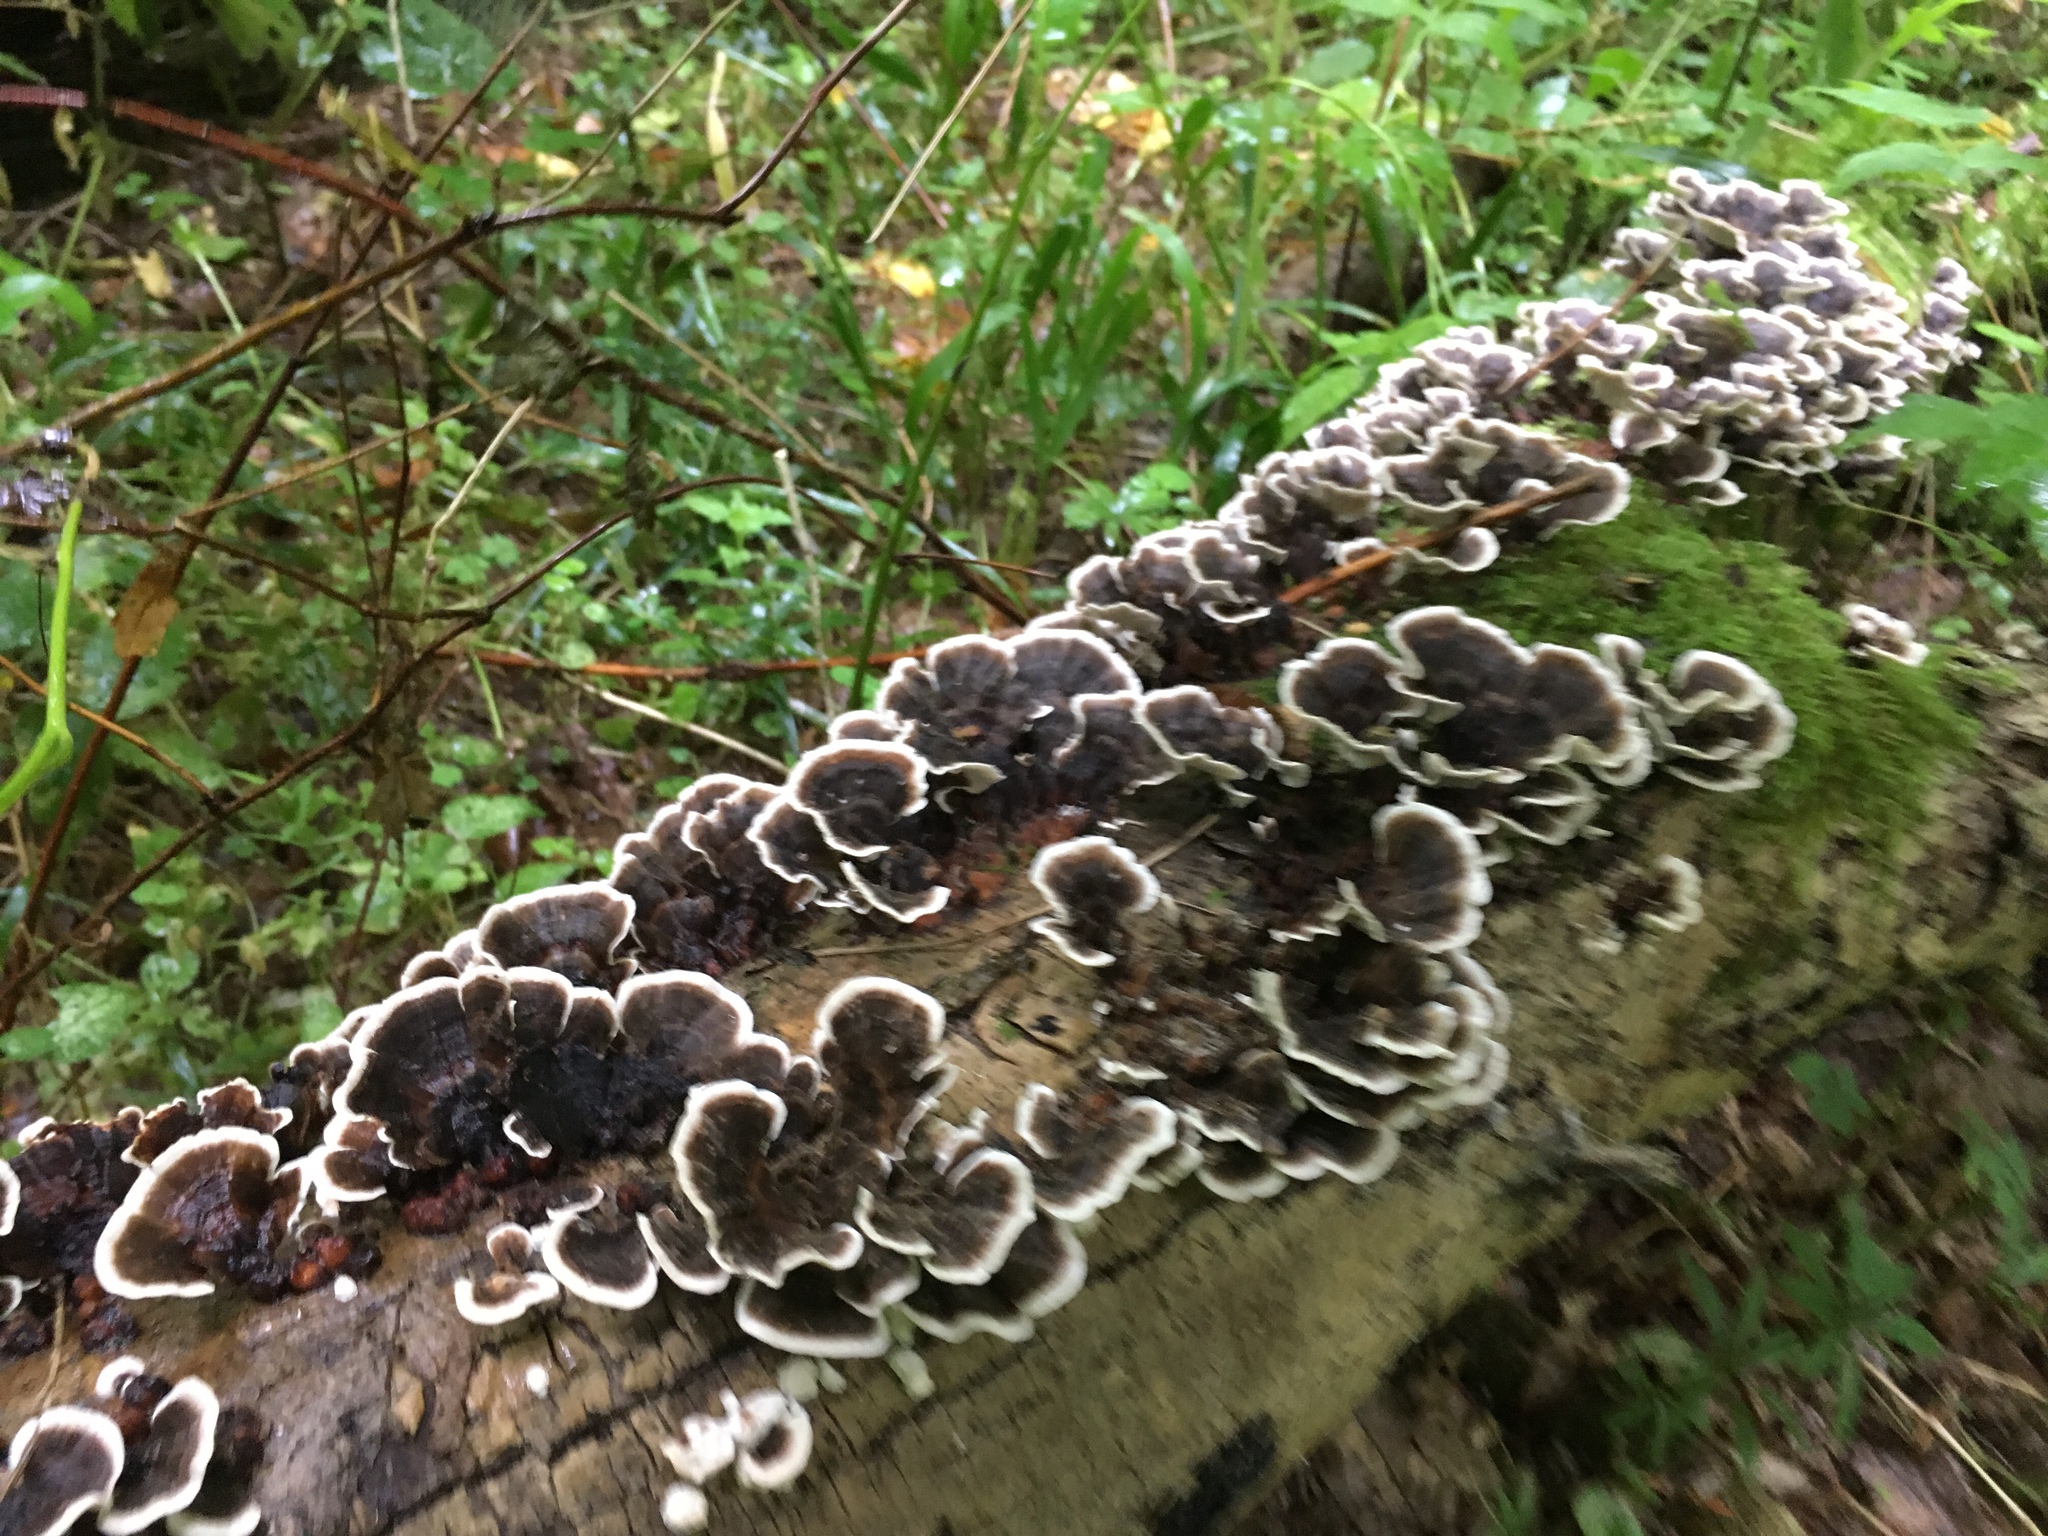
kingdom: Fungi
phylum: Basidiomycota
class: Agaricomycetes
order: Polyporales
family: Polyporaceae
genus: Trametes
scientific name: Trametes versicolor
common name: Turkeytail
